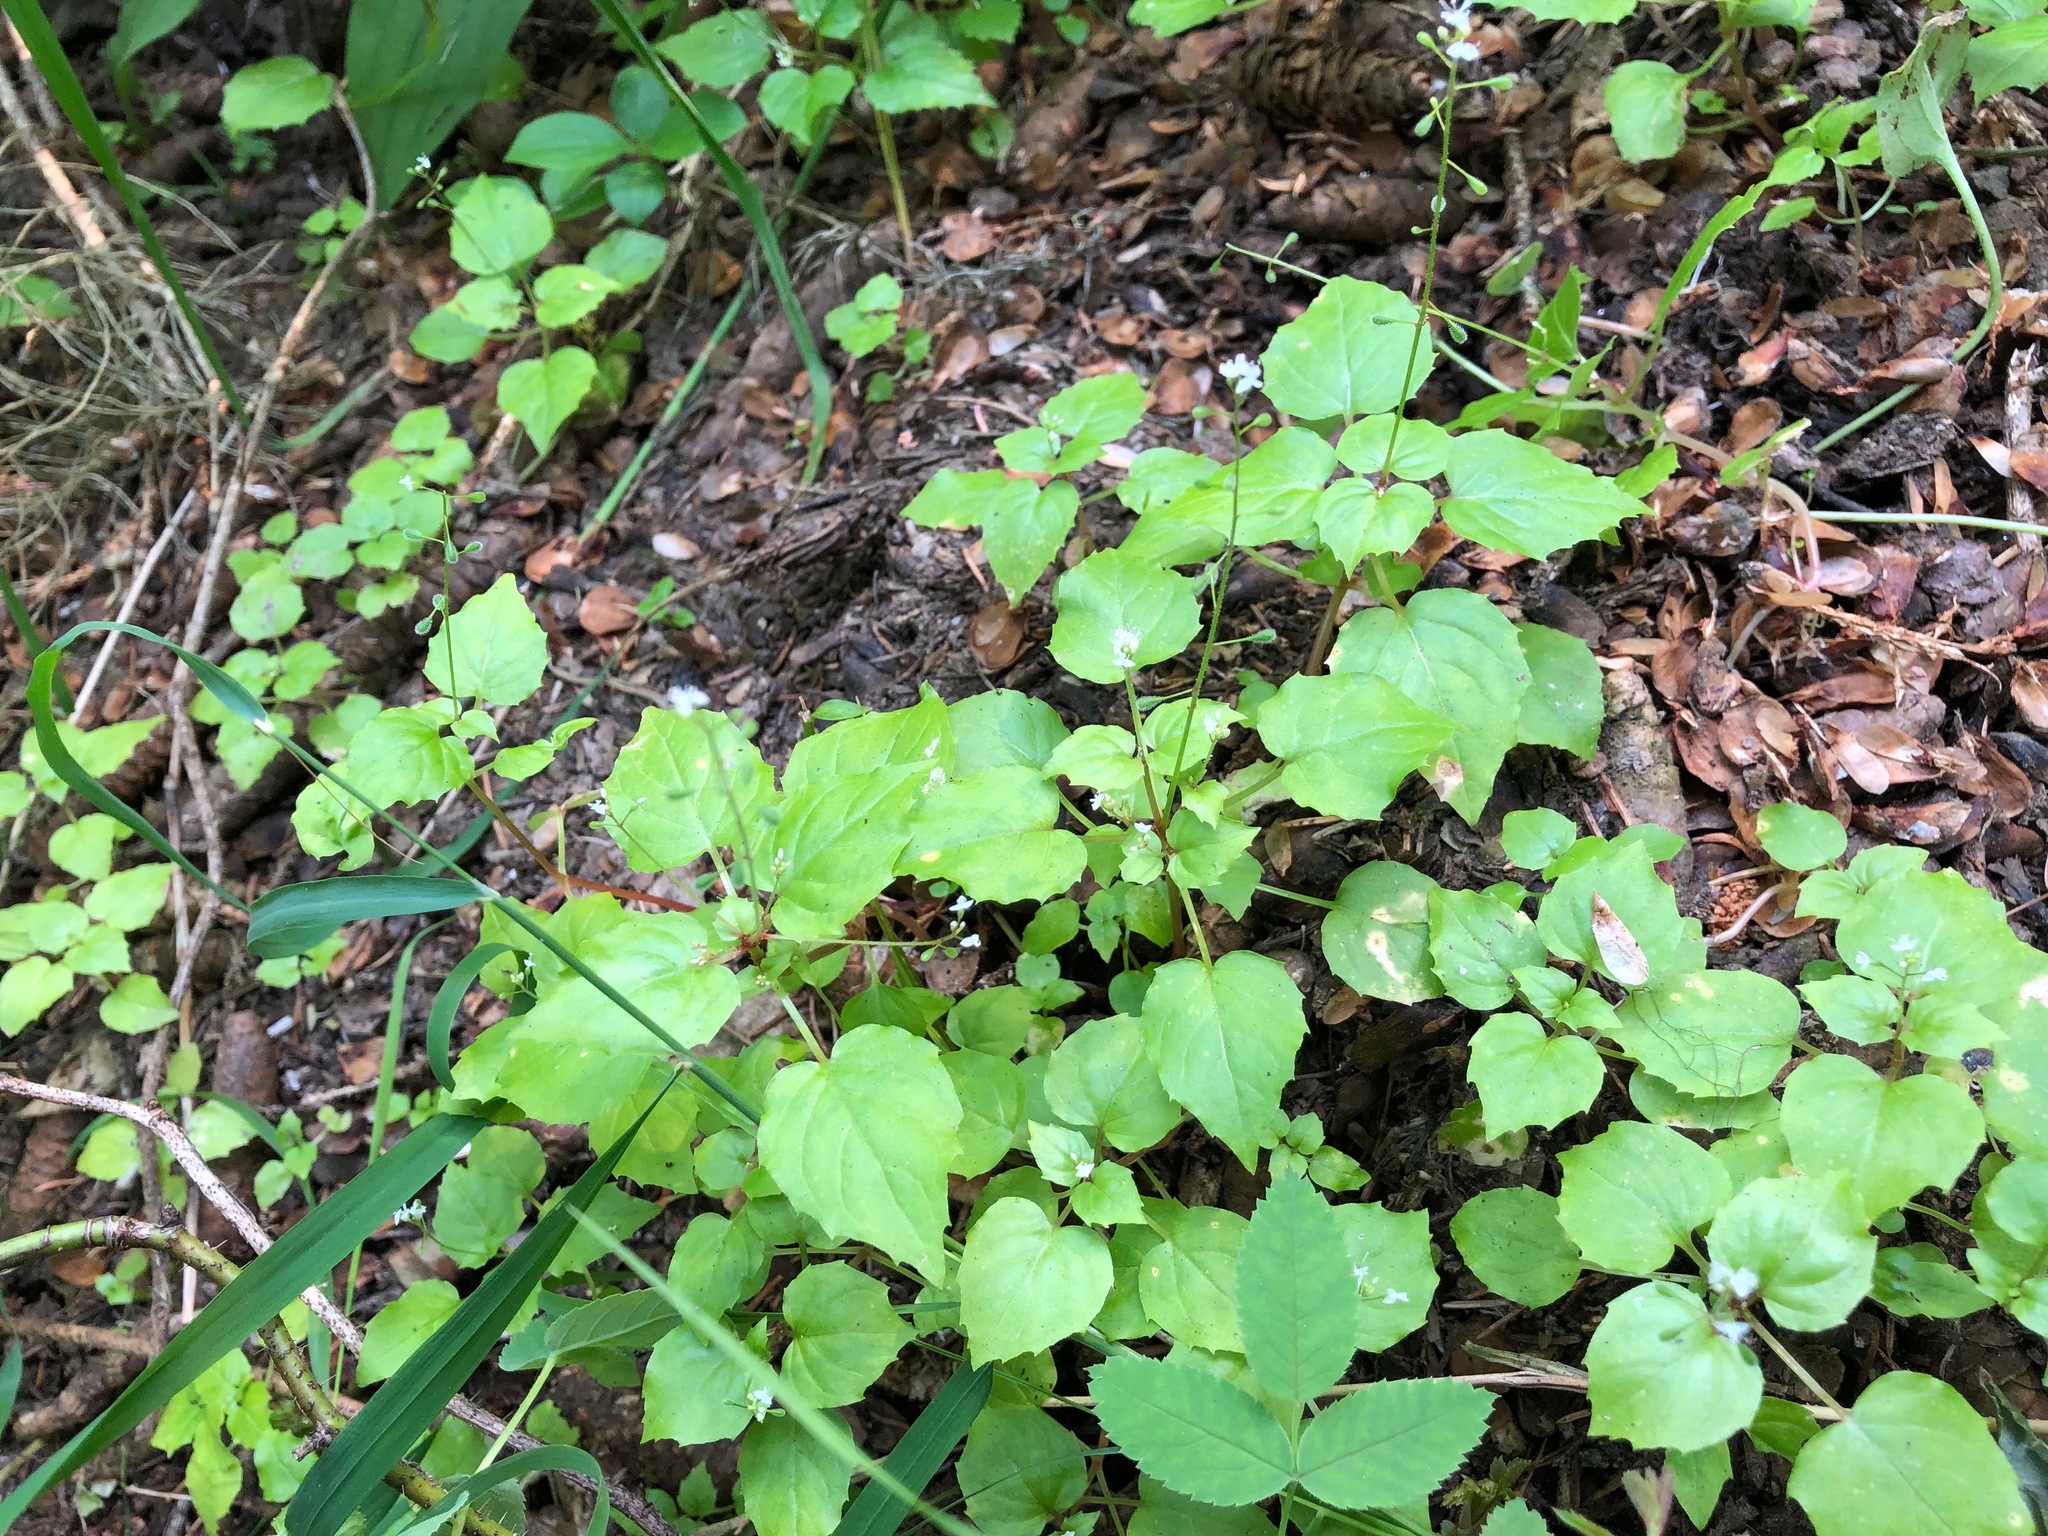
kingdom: Plantae
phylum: Tracheophyta
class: Magnoliopsida
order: Myrtales
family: Onagraceae
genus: Circaea
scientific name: Circaea alpina
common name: Alpine enchanter's-nightshade
